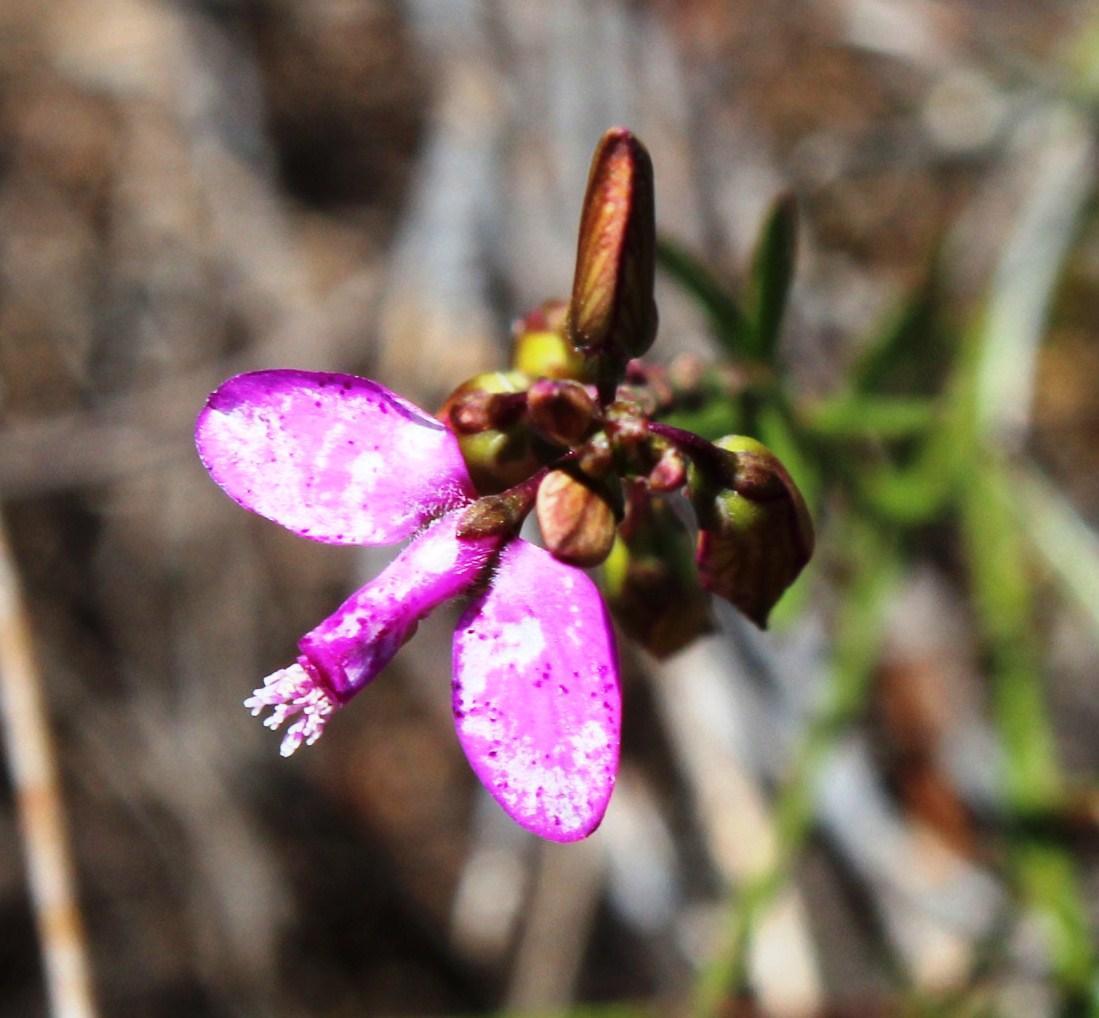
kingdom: Plantae
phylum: Tracheophyta
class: Magnoliopsida
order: Fabales
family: Polygalaceae
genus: Polygala
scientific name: Polygala garcini
